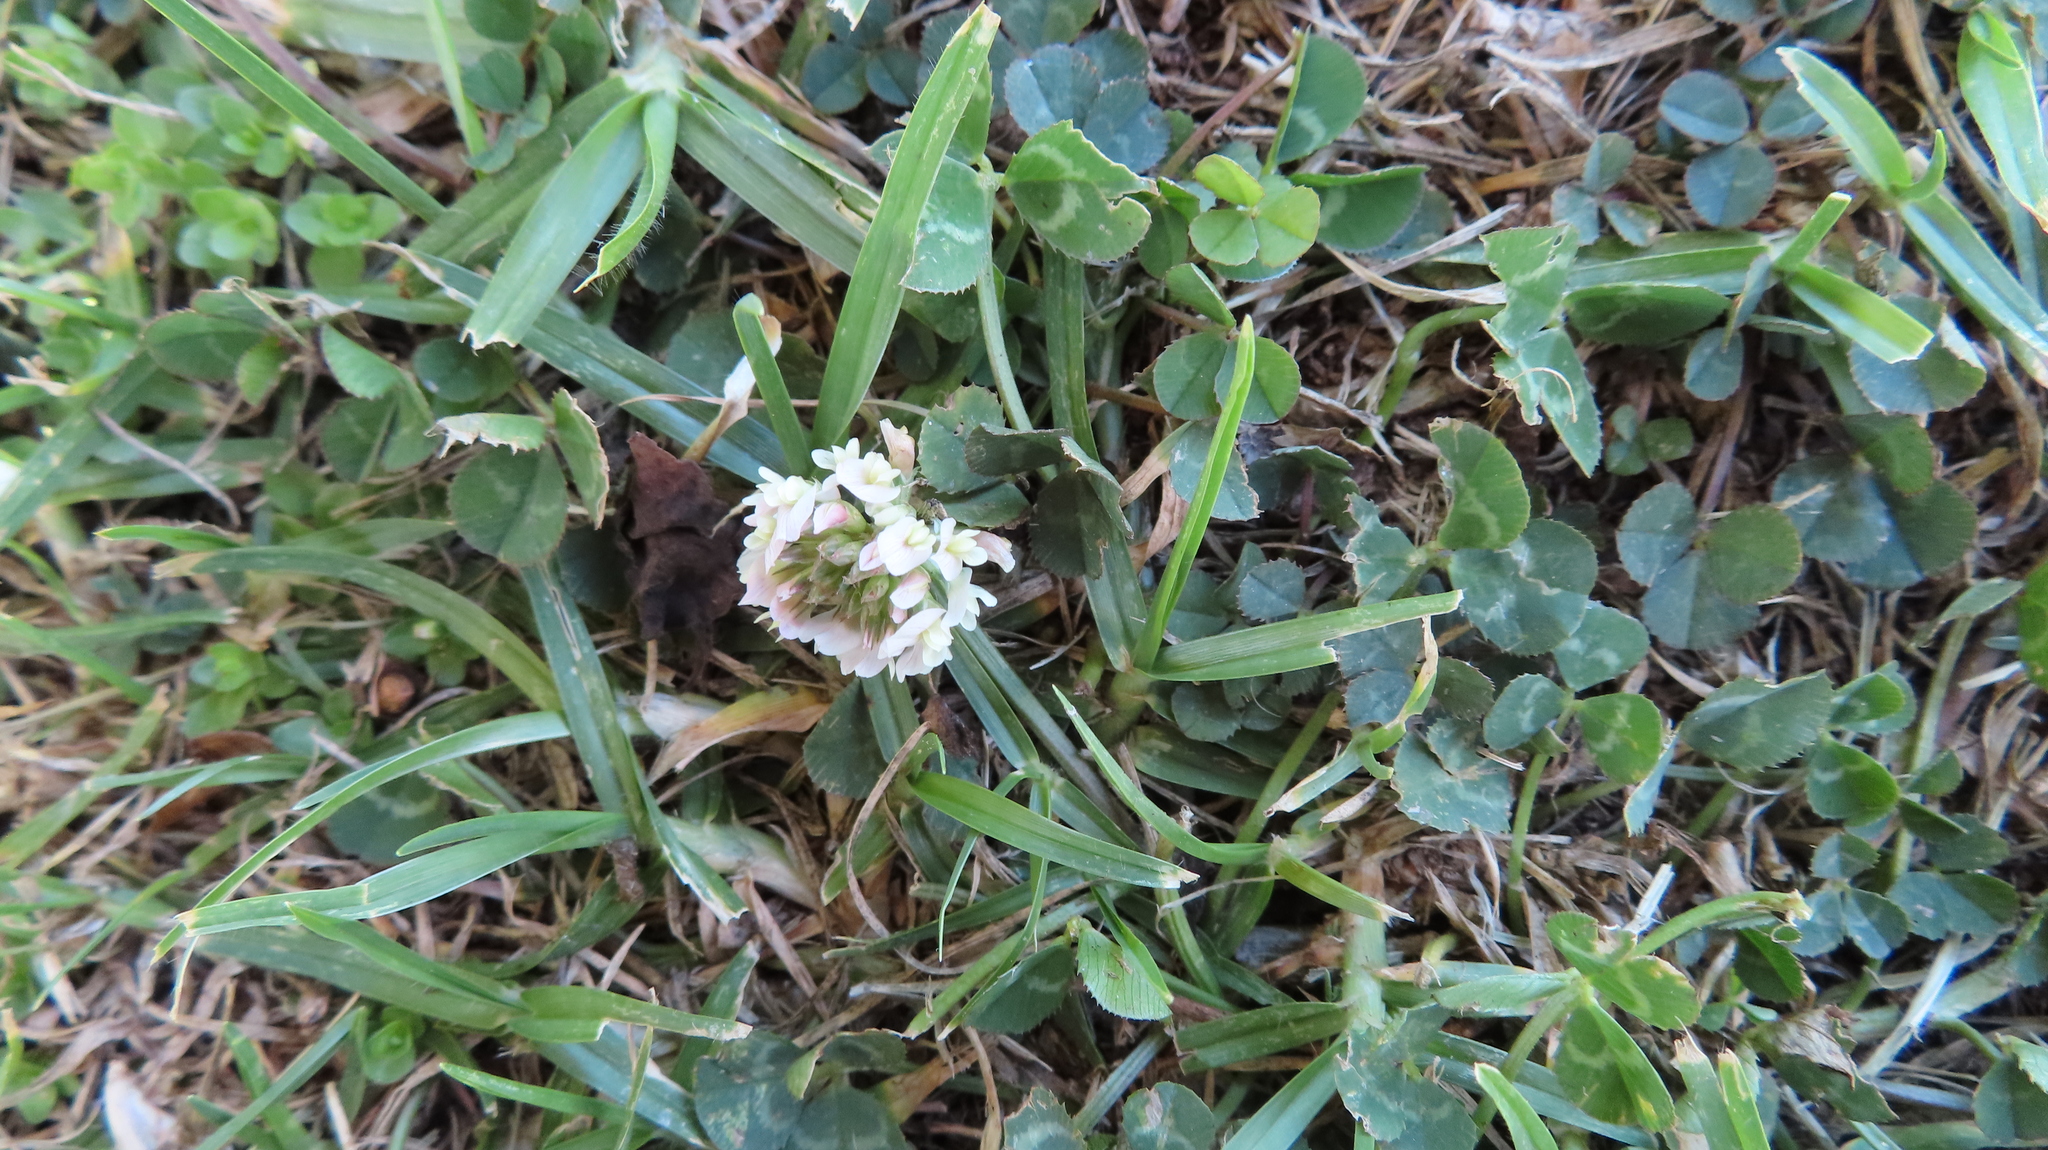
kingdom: Plantae
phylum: Tracheophyta
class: Magnoliopsida
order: Fabales
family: Fabaceae
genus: Trifolium
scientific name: Trifolium repens
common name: White clover
